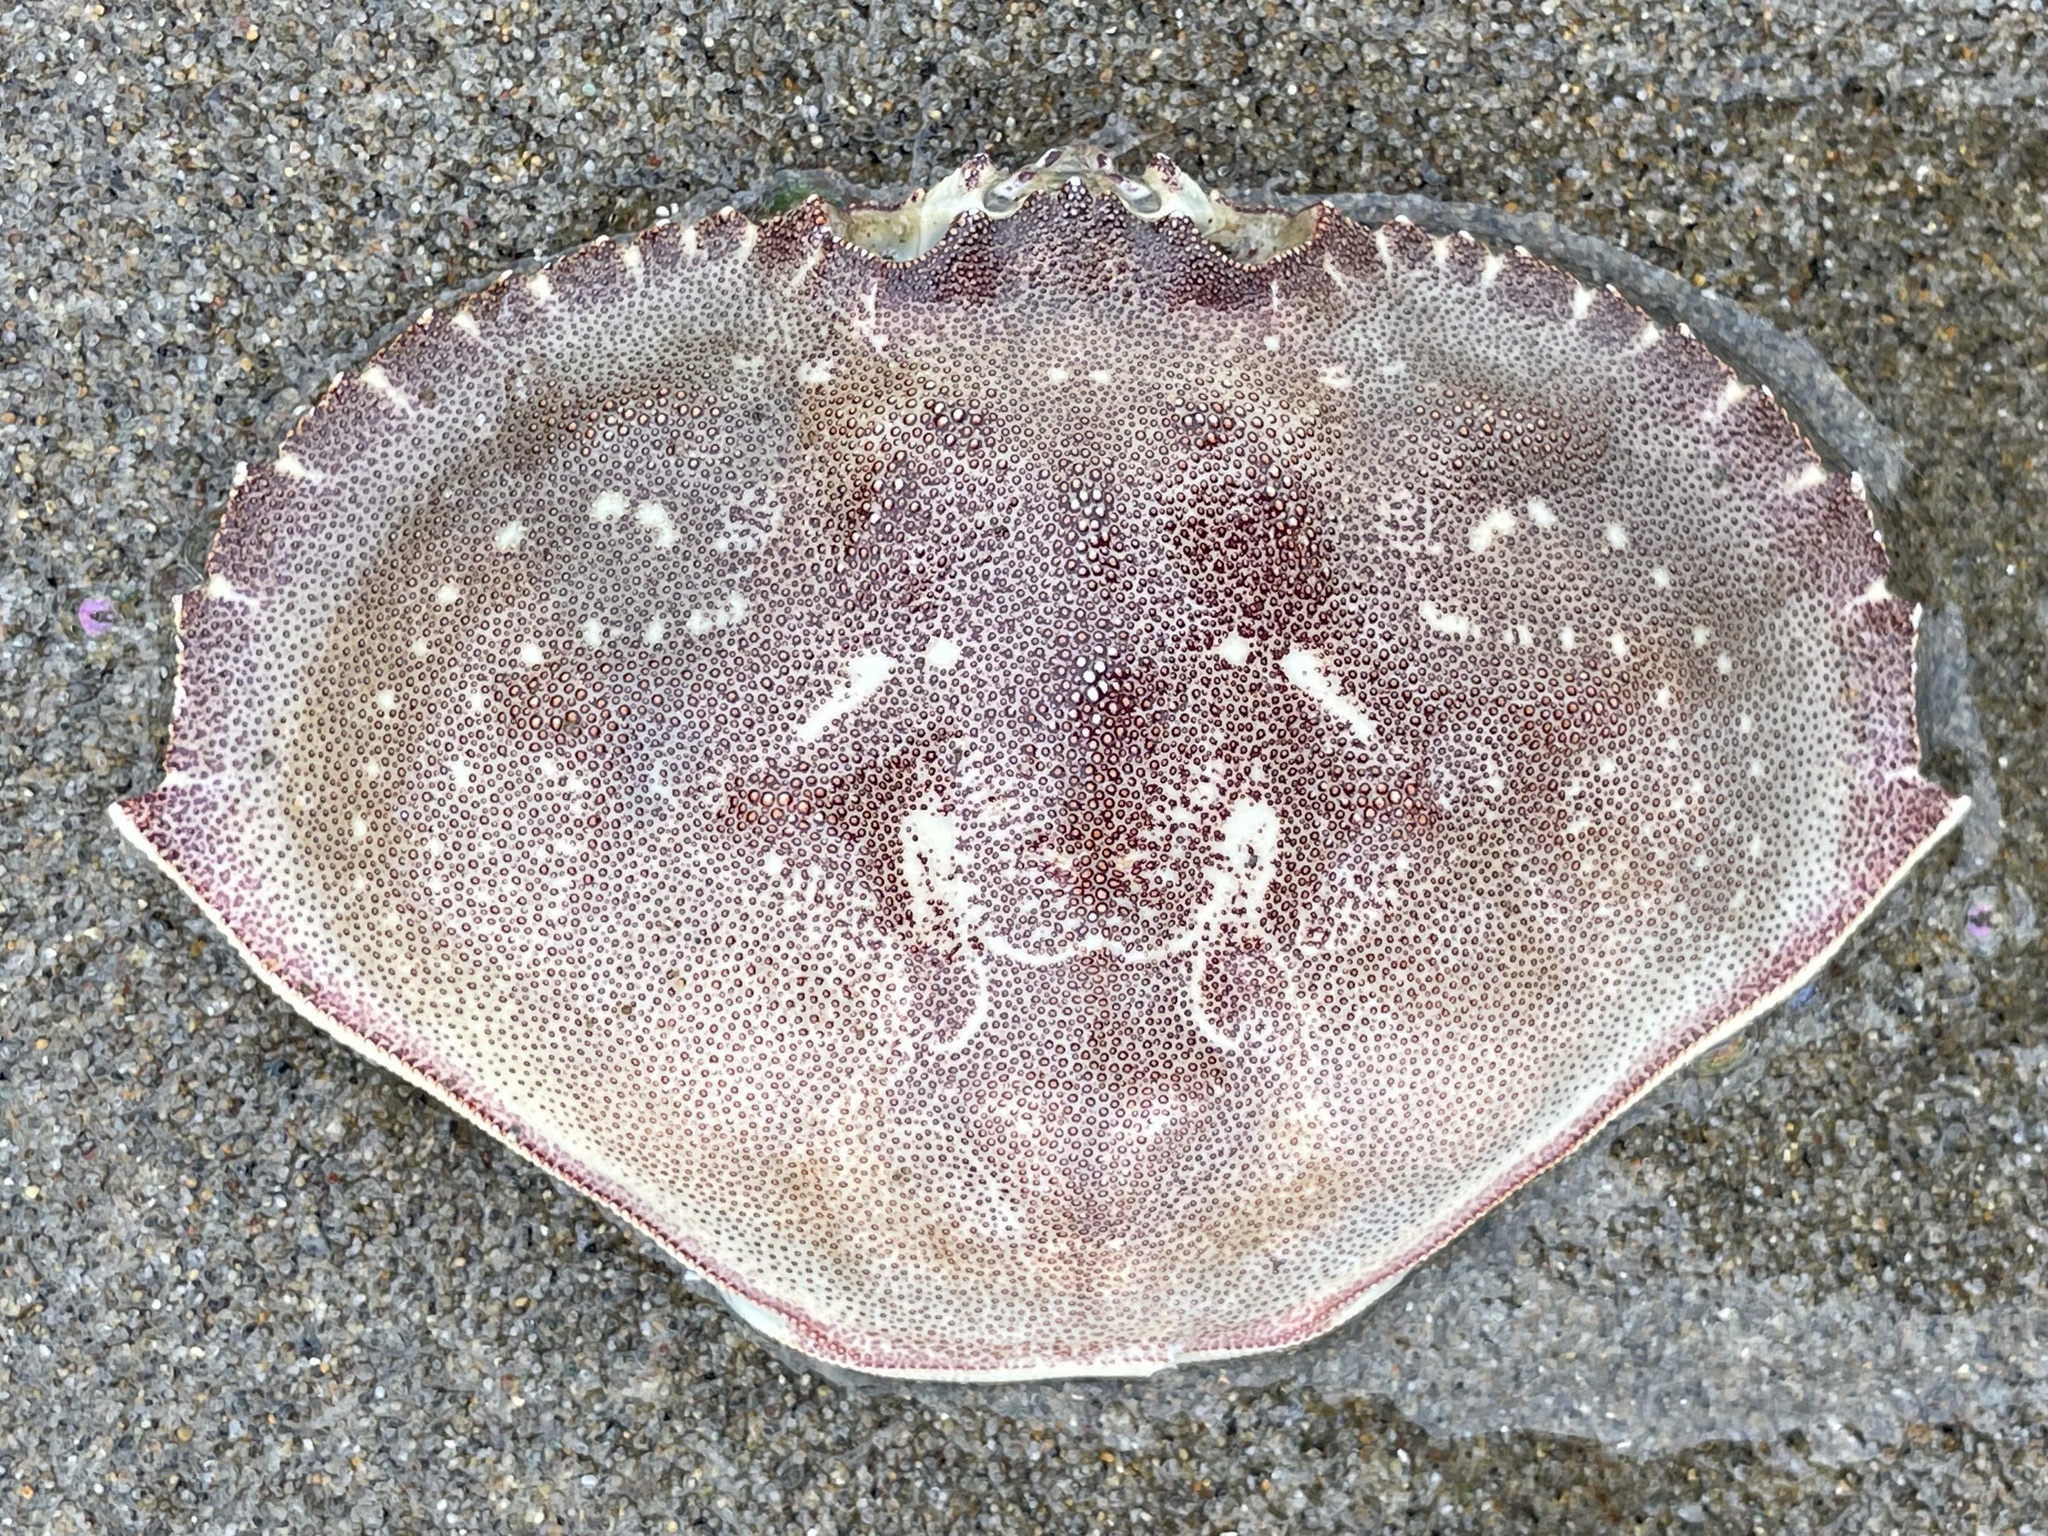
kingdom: Animalia
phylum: Arthropoda
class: Malacostraca
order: Decapoda
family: Cancridae
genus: Metacarcinus
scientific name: Metacarcinus magister
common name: Californian crab
